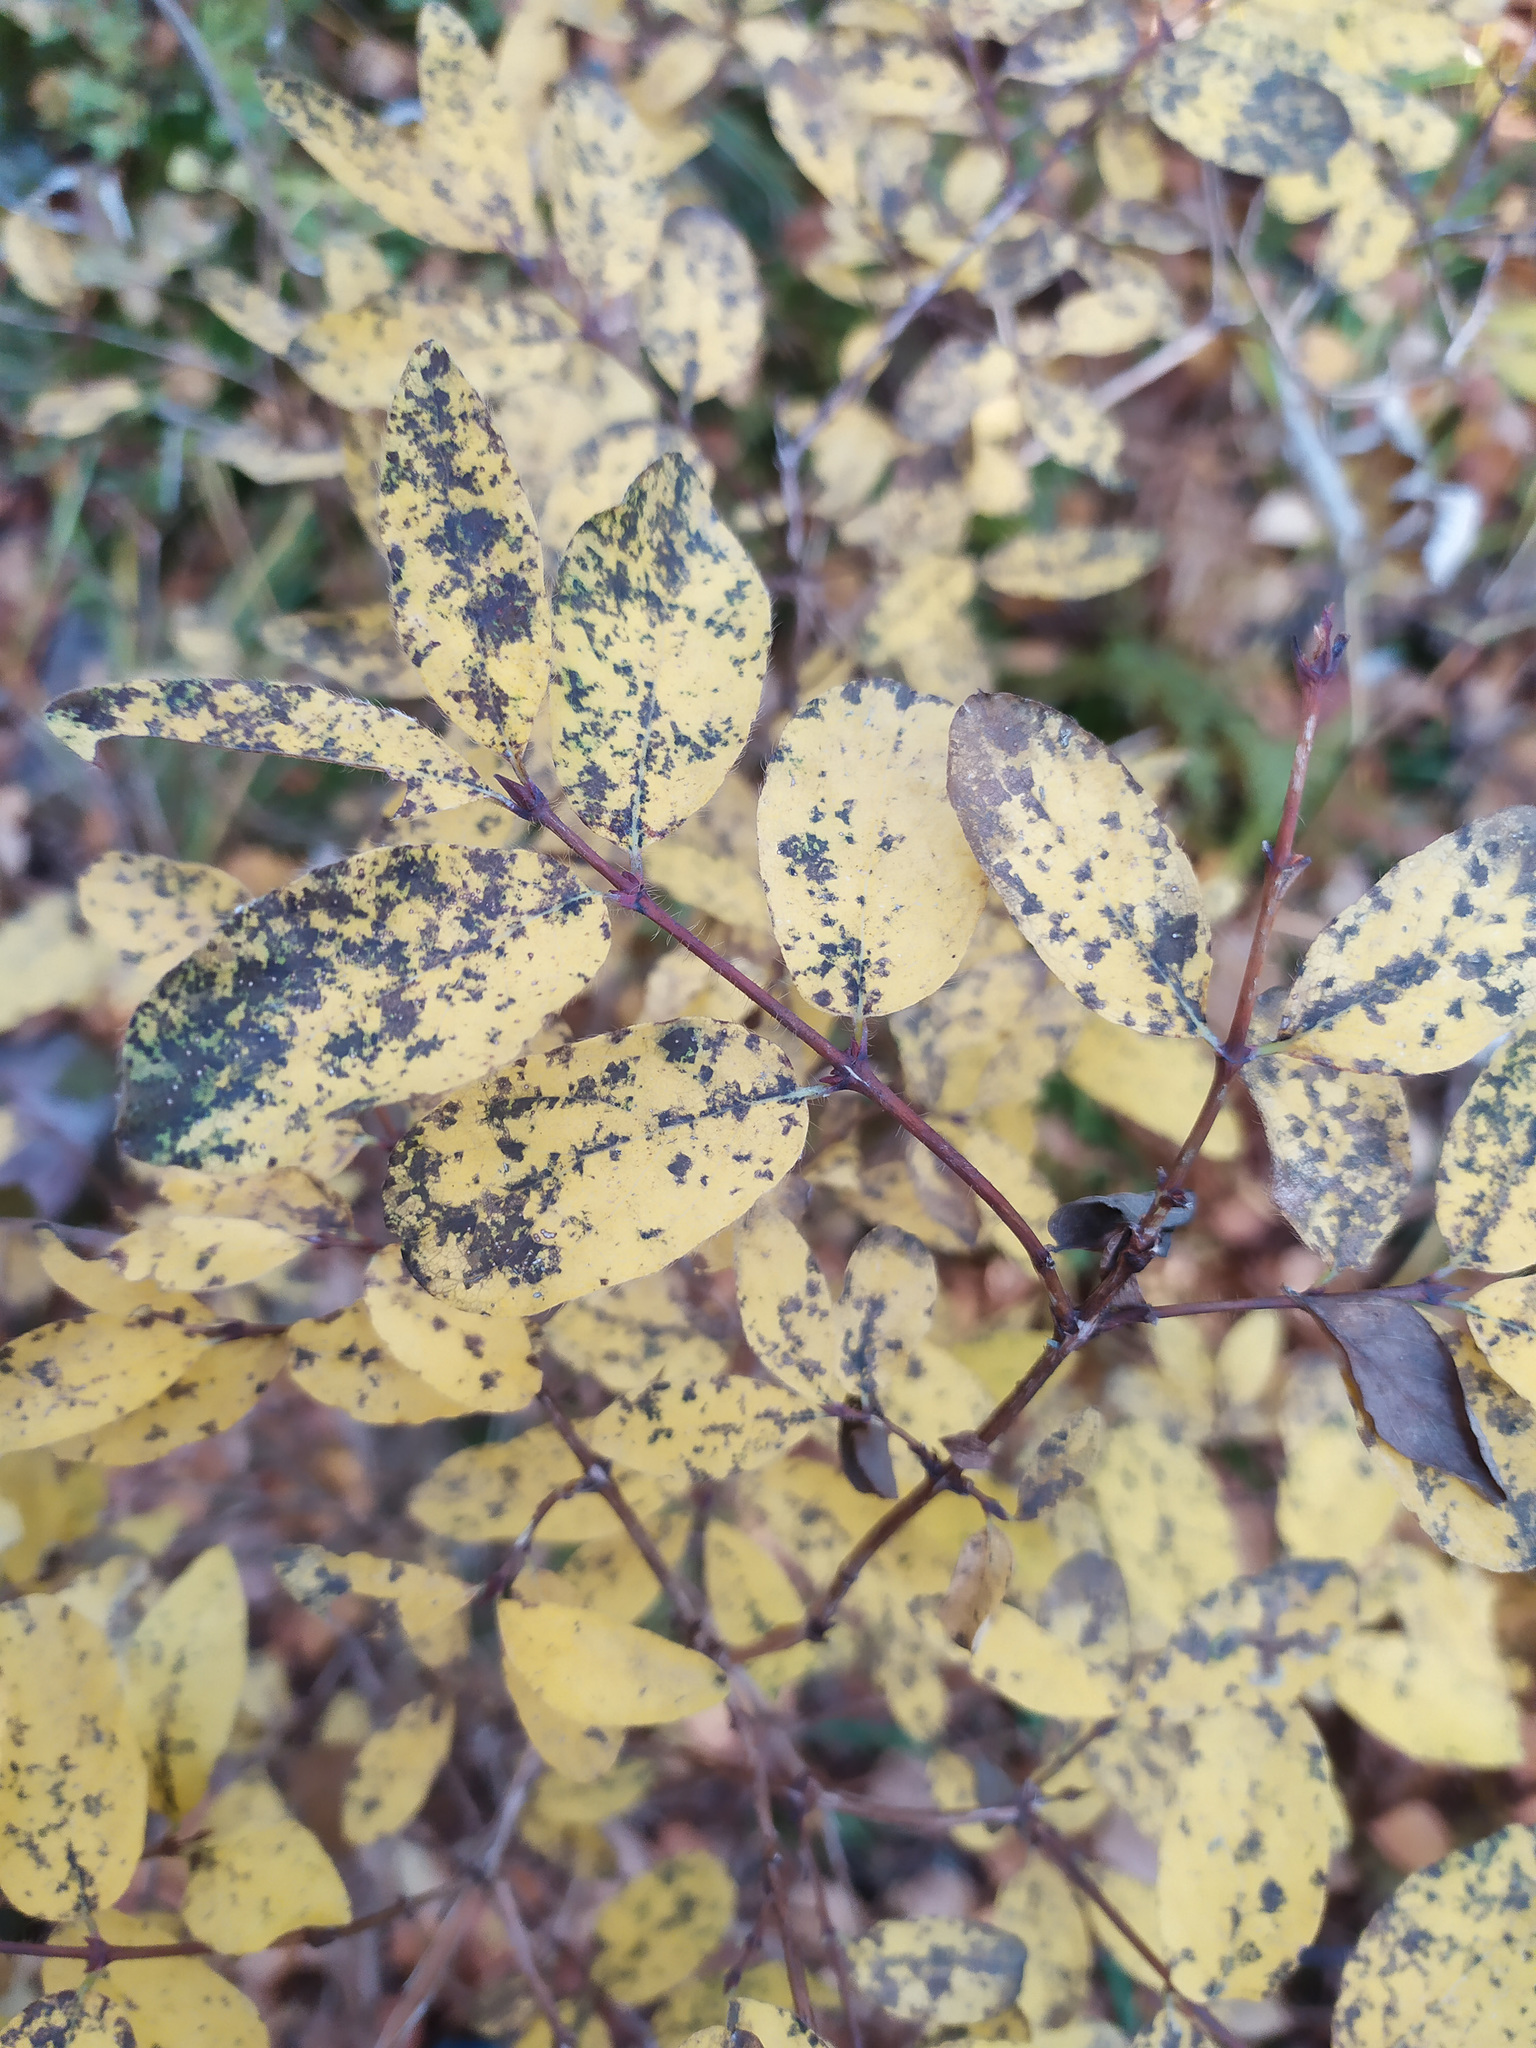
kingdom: Plantae
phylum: Tracheophyta
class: Magnoliopsida
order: Dipsacales
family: Caprifoliaceae
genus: Lonicera
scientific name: Lonicera caerulea
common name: Blue honeysuckle
